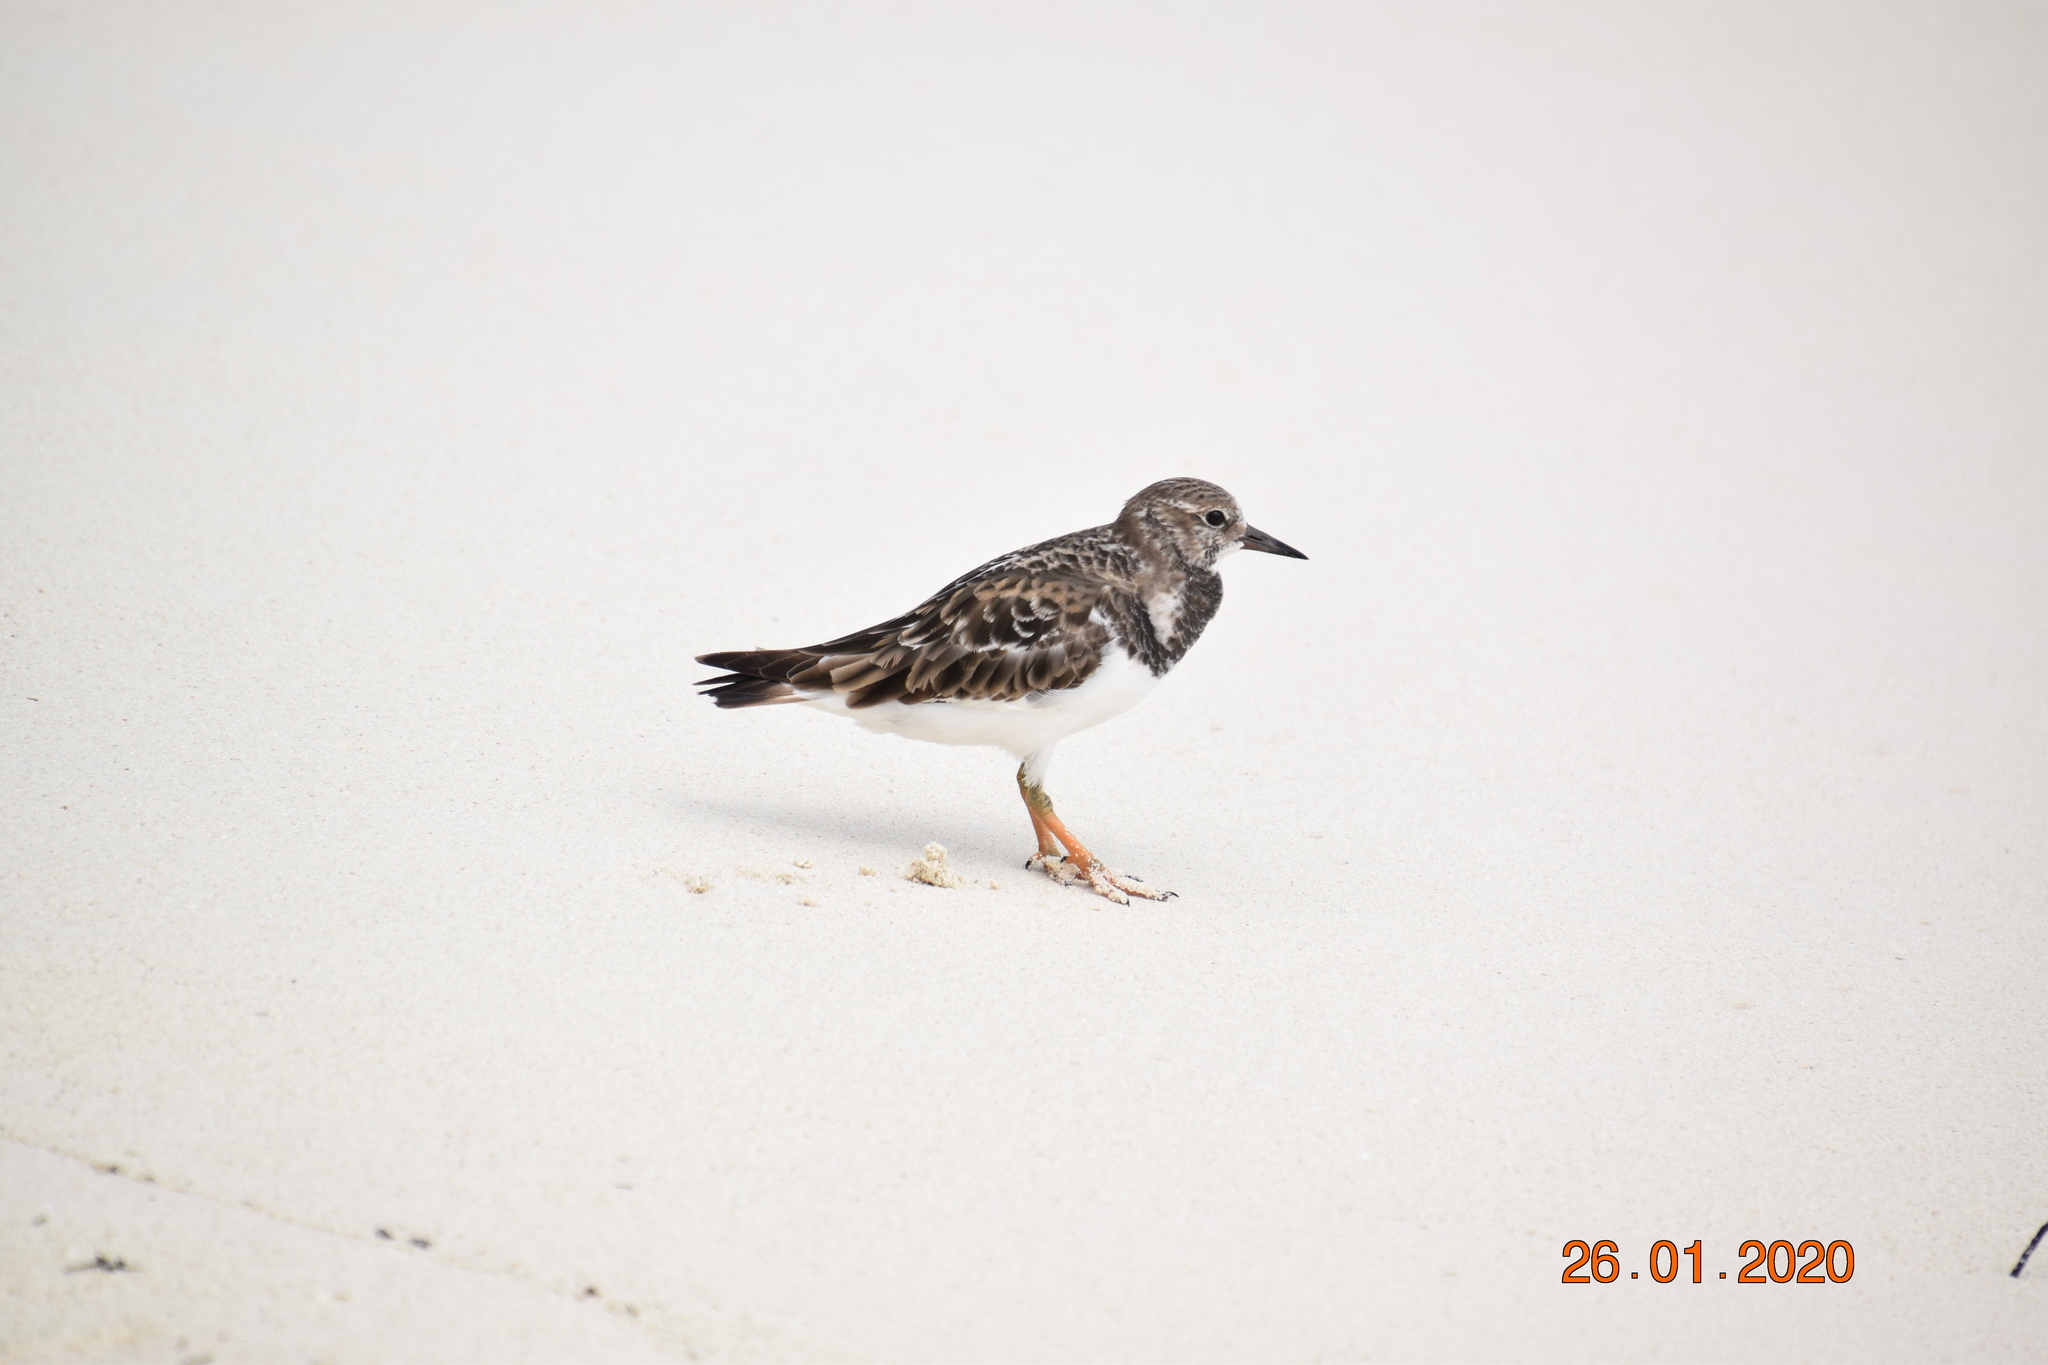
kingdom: Animalia
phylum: Chordata
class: Aves
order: Charadriiformes
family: Scolopacidae
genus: Arenaria
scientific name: Arenaria interpres
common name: Ruddy turnstone
